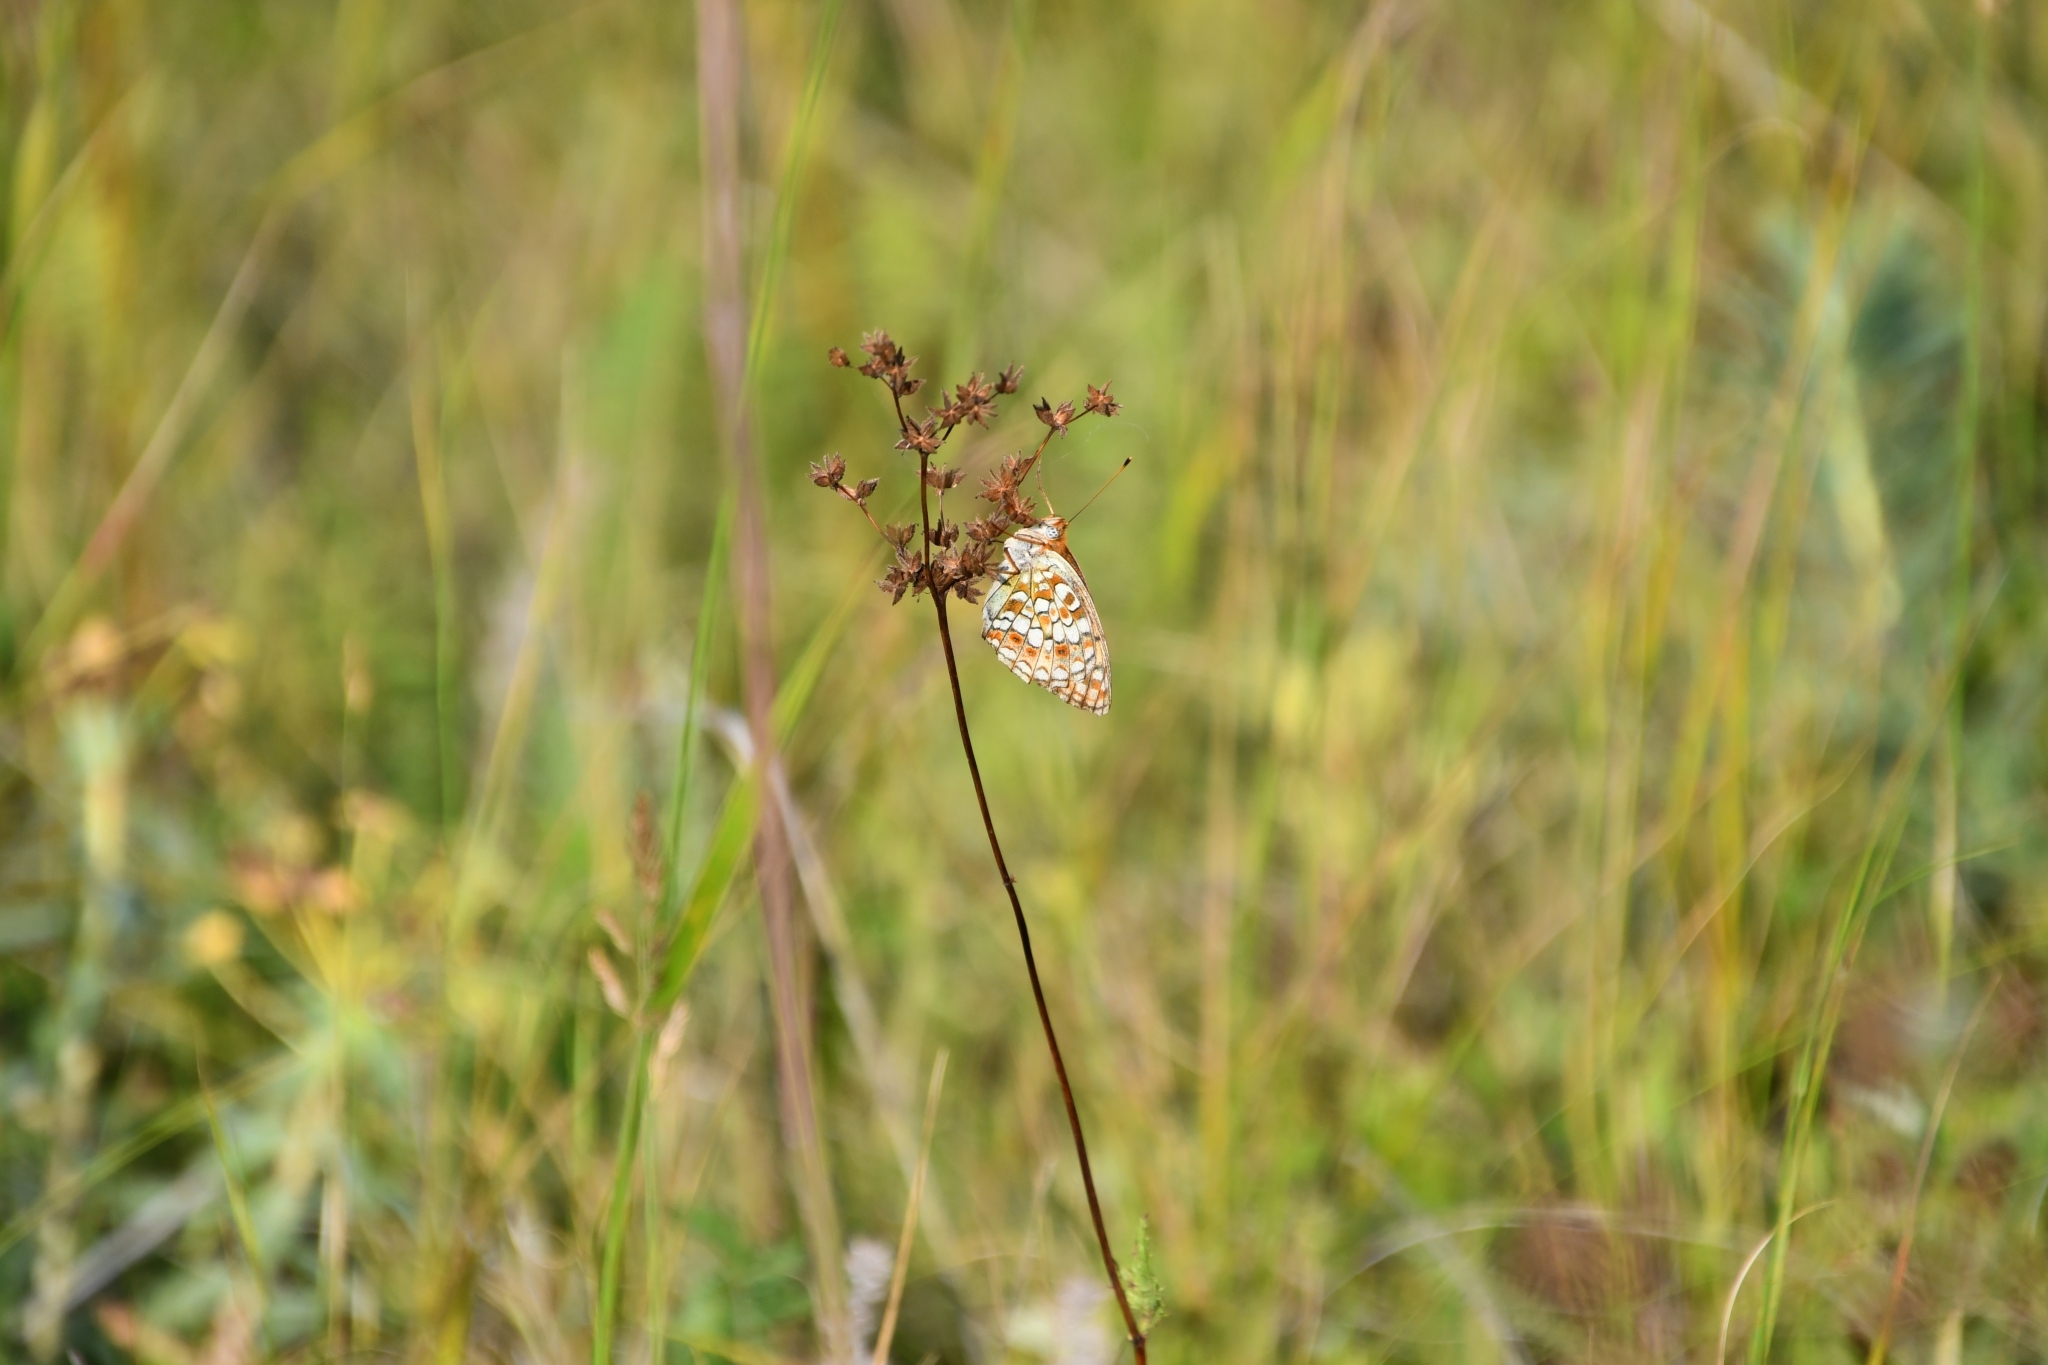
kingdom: Animalia
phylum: Arthropoda
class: Insecta
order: Lepidoptera
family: Nymphalidae
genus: Fabriciana
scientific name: Fabriciana niobe
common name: Niobe fritillary
